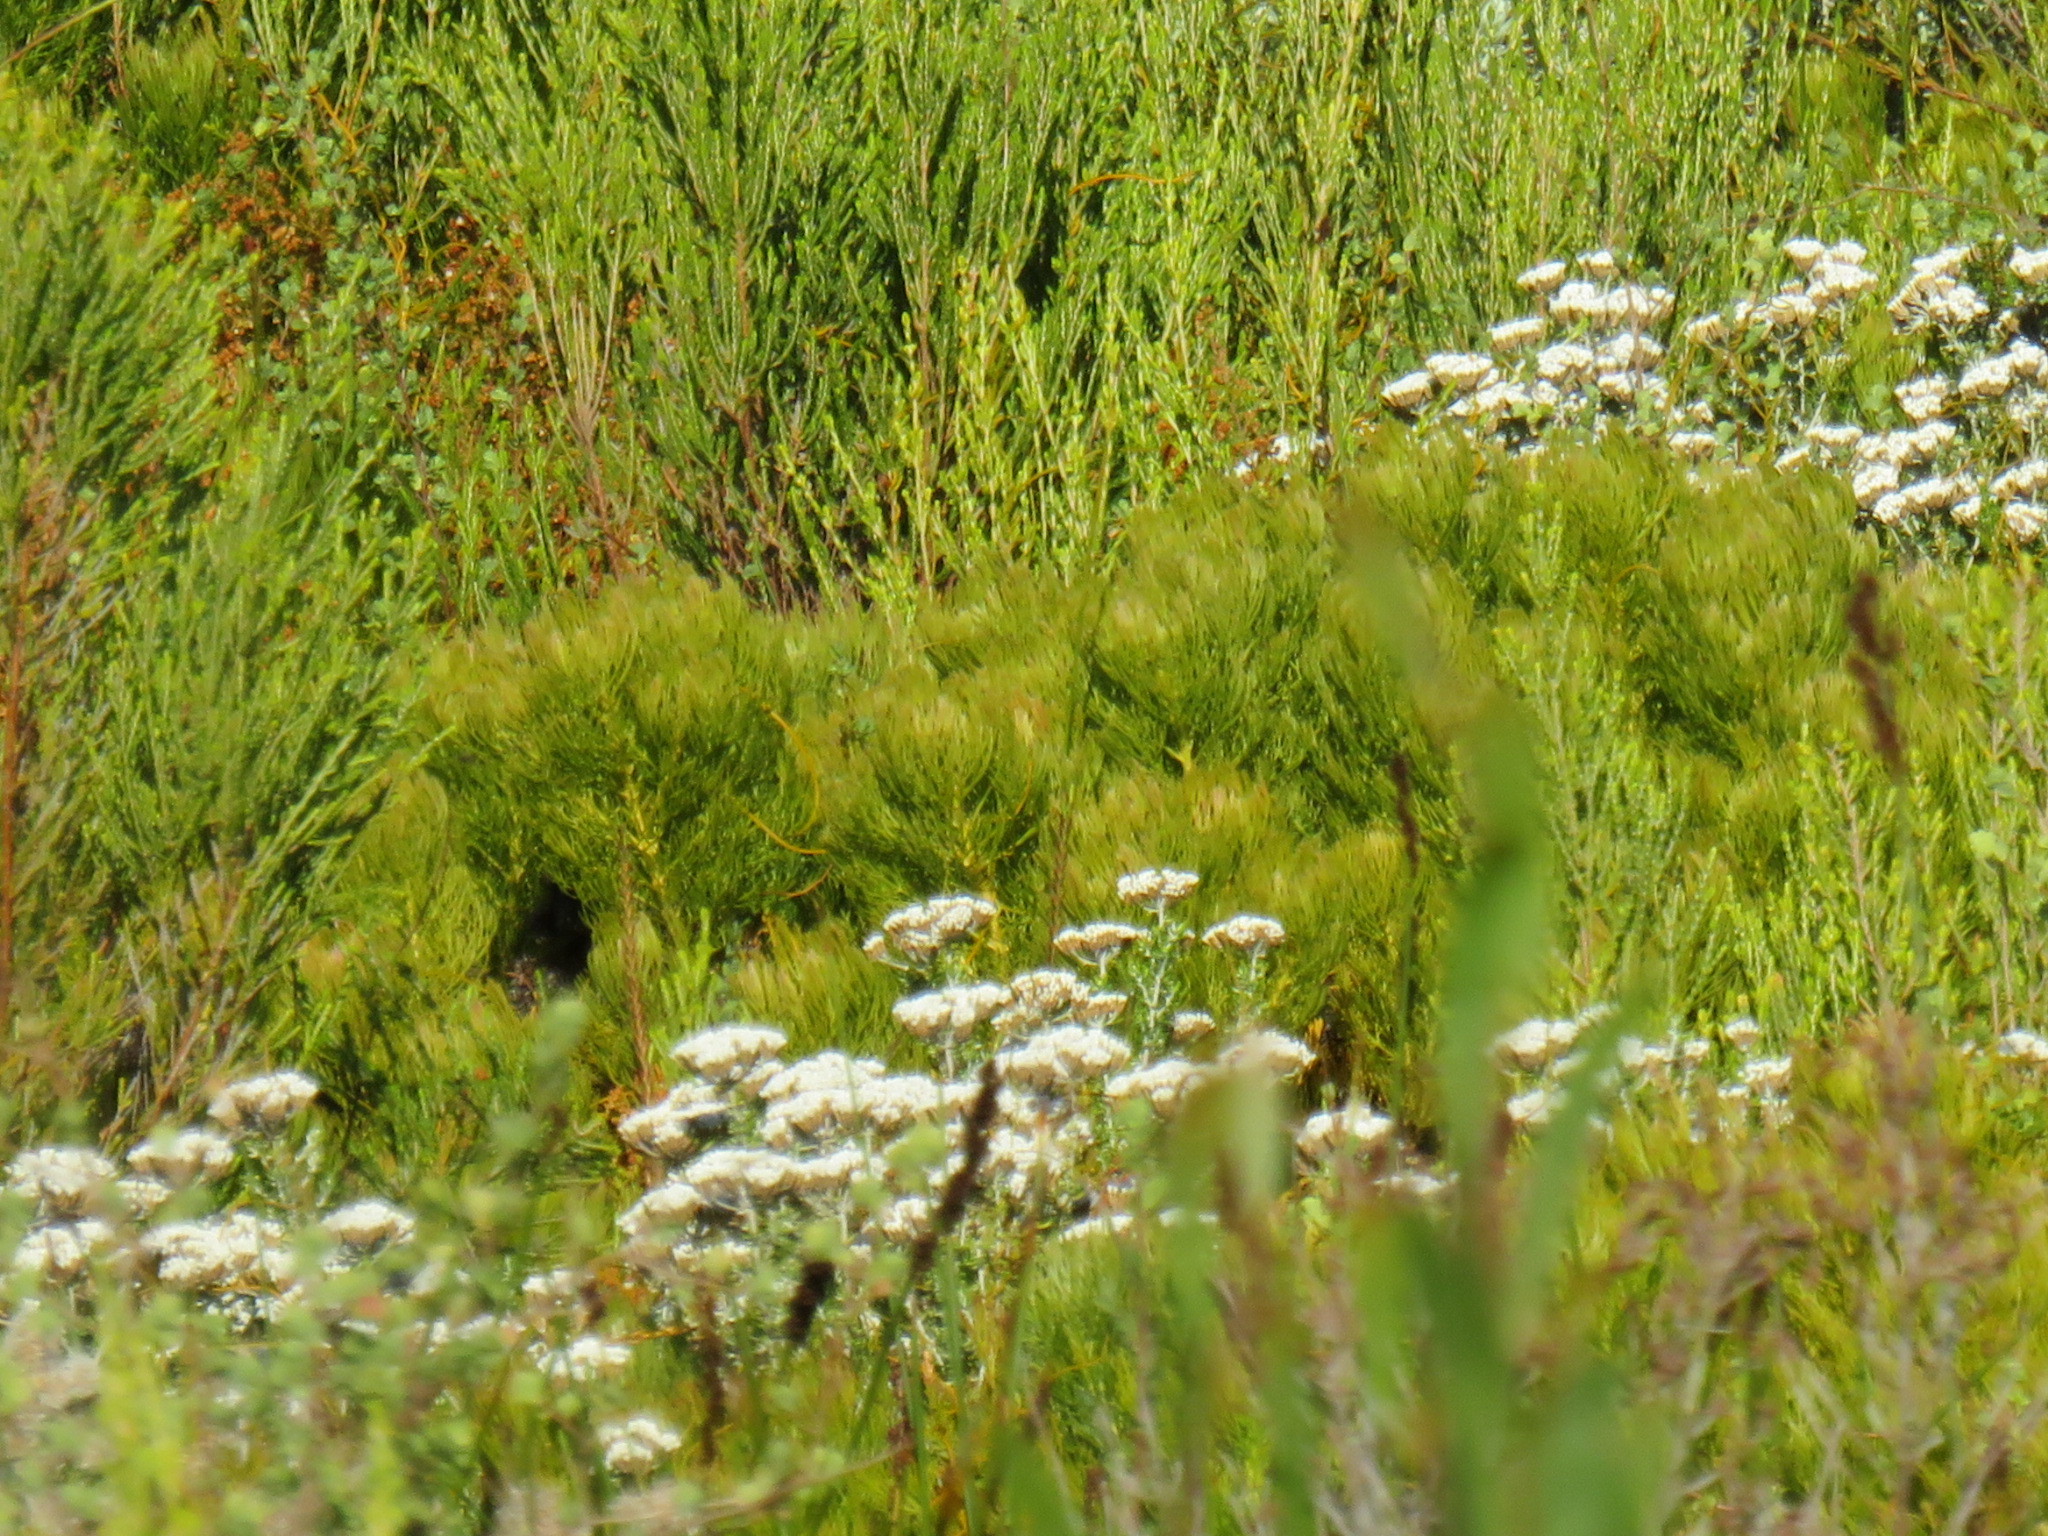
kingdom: Plantae
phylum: Tracheophyta
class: Magnoliopsida
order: Proteales
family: Proteaceae
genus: Serruria
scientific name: Serruria glomerata
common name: Cluster spiderhead
